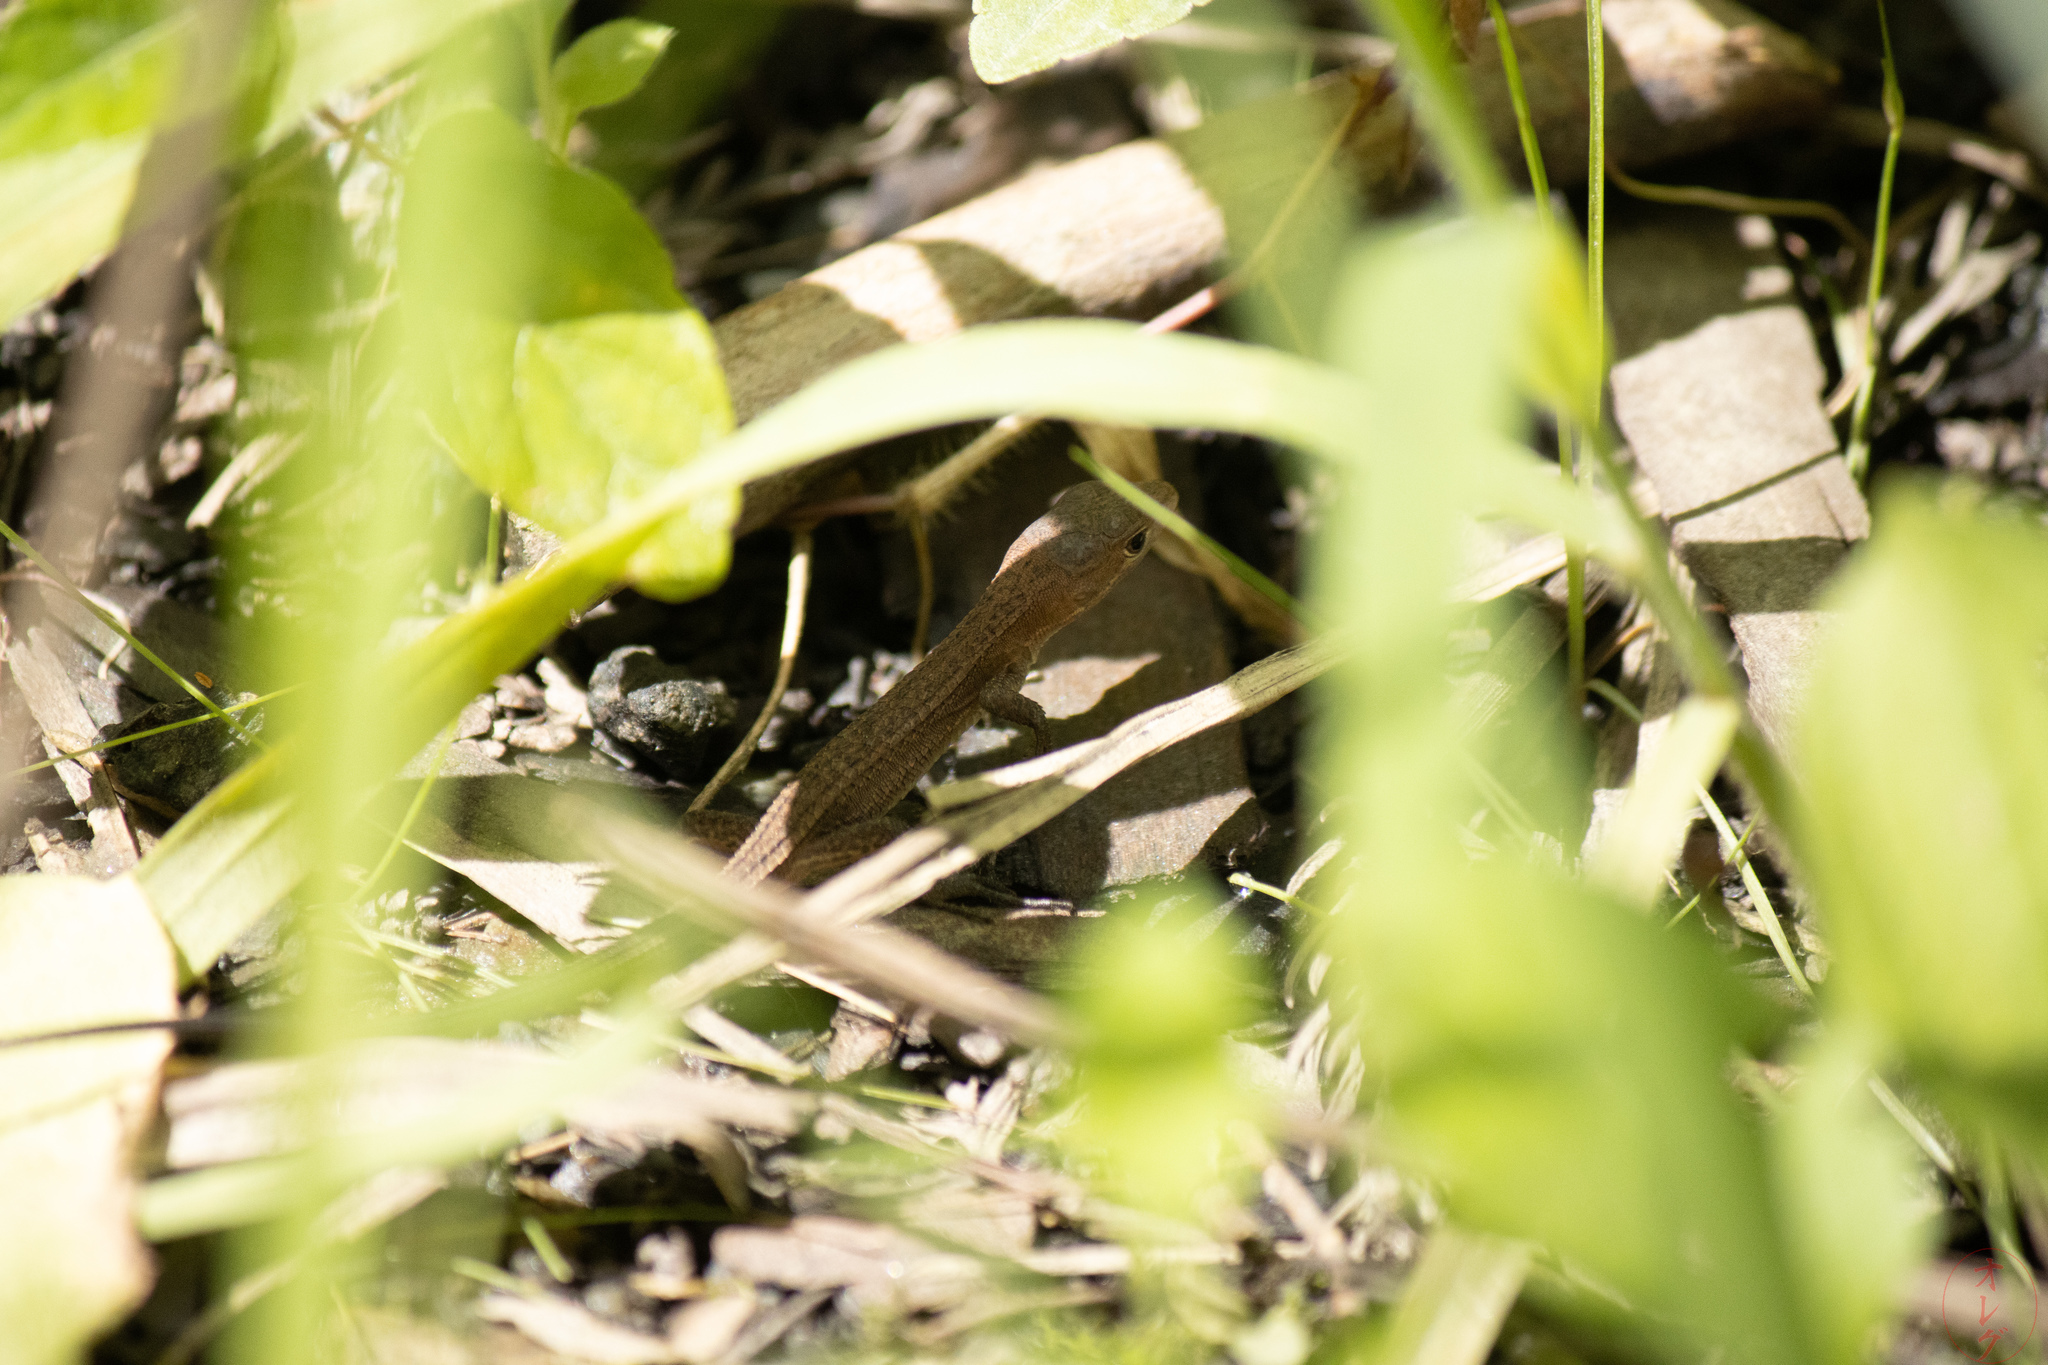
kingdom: Animalia
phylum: Chordata
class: Squamata
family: Lacertidae
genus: Takydromus
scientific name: Takydromus tachydromoides
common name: Japanese grass lizard
